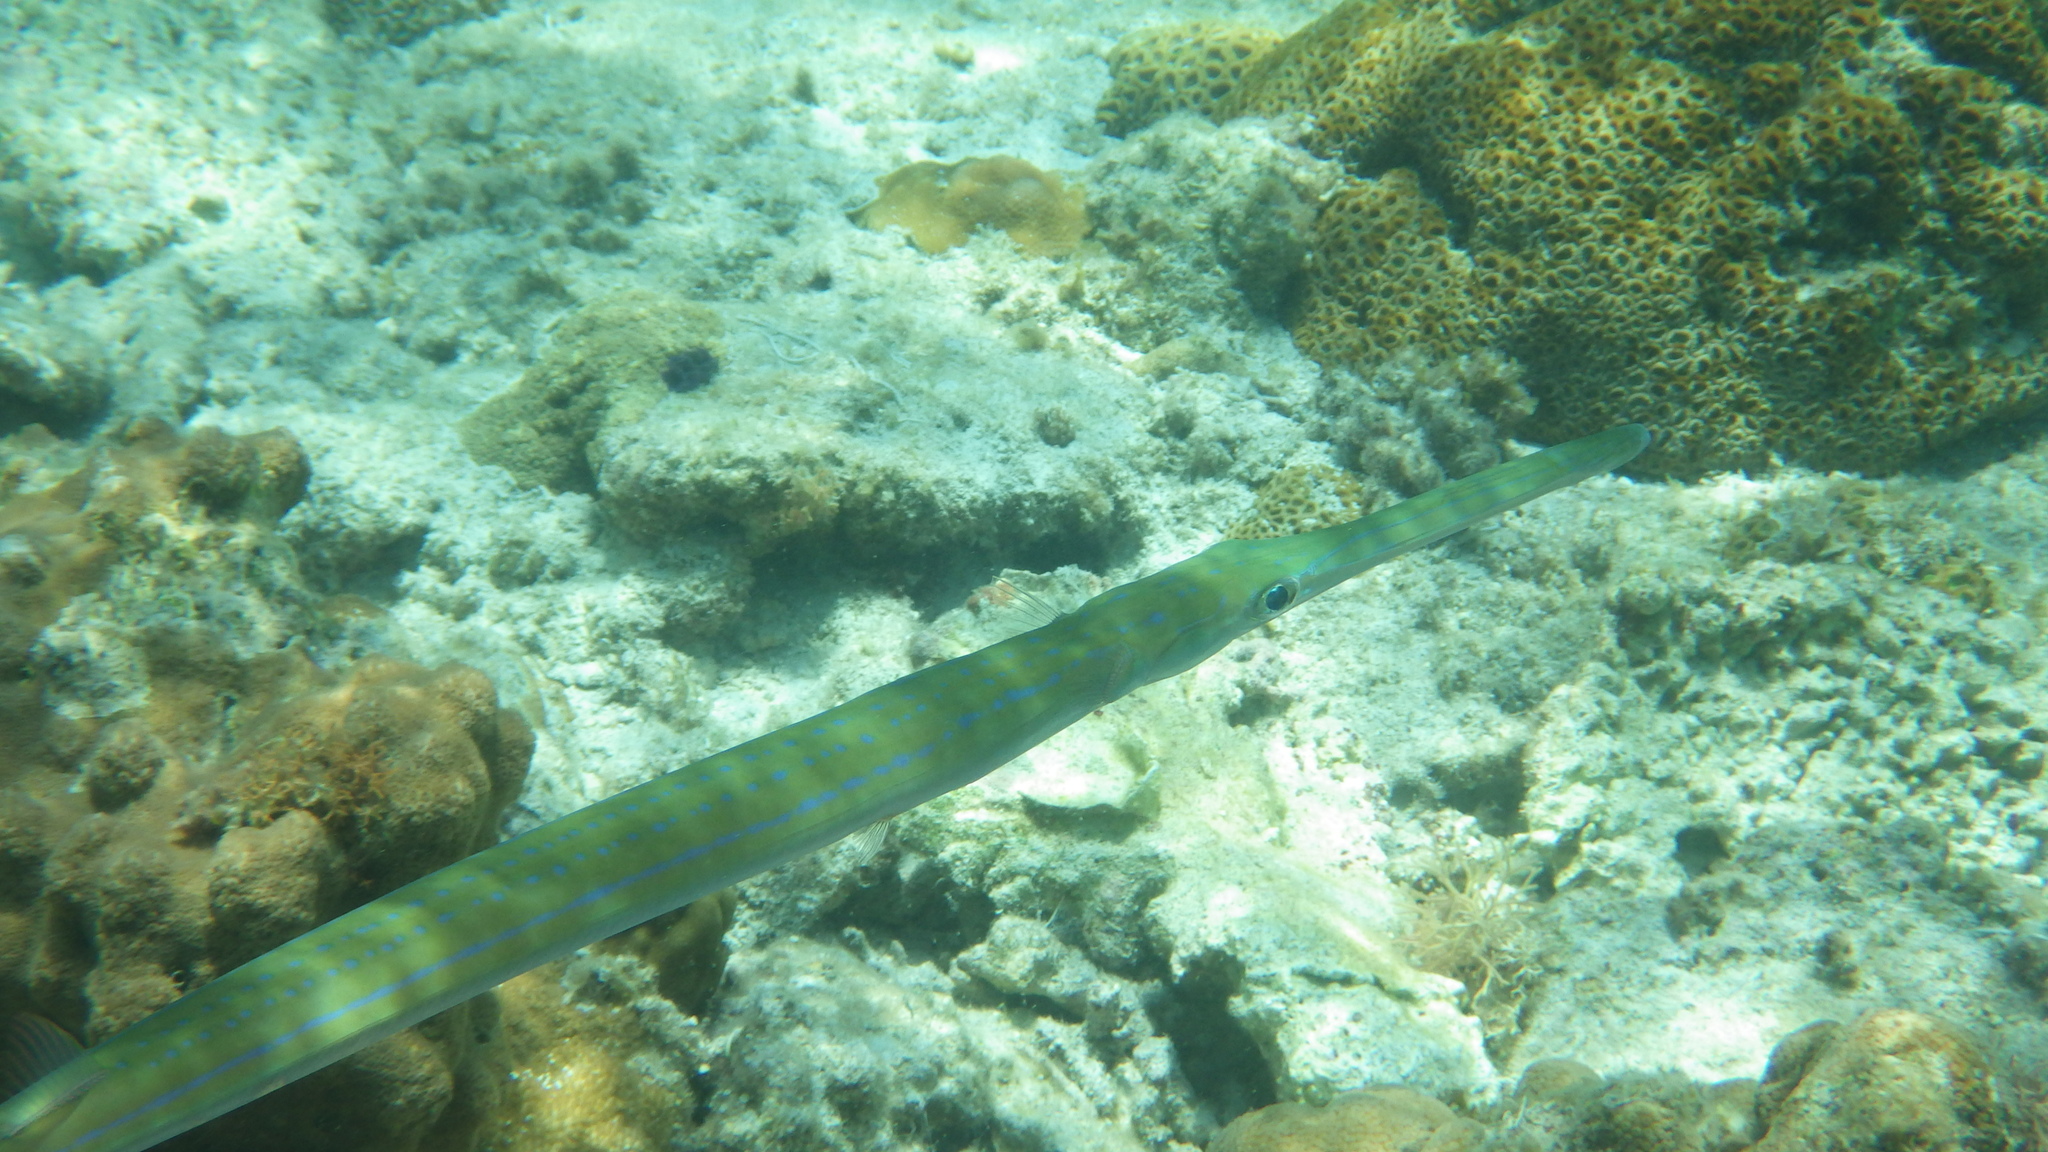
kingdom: Animalia
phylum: Chordata
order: Syngnathiformes
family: Fistulariidae
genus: Fistularia
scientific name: Fistularia commersonii
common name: Bluespotted cornetfish
